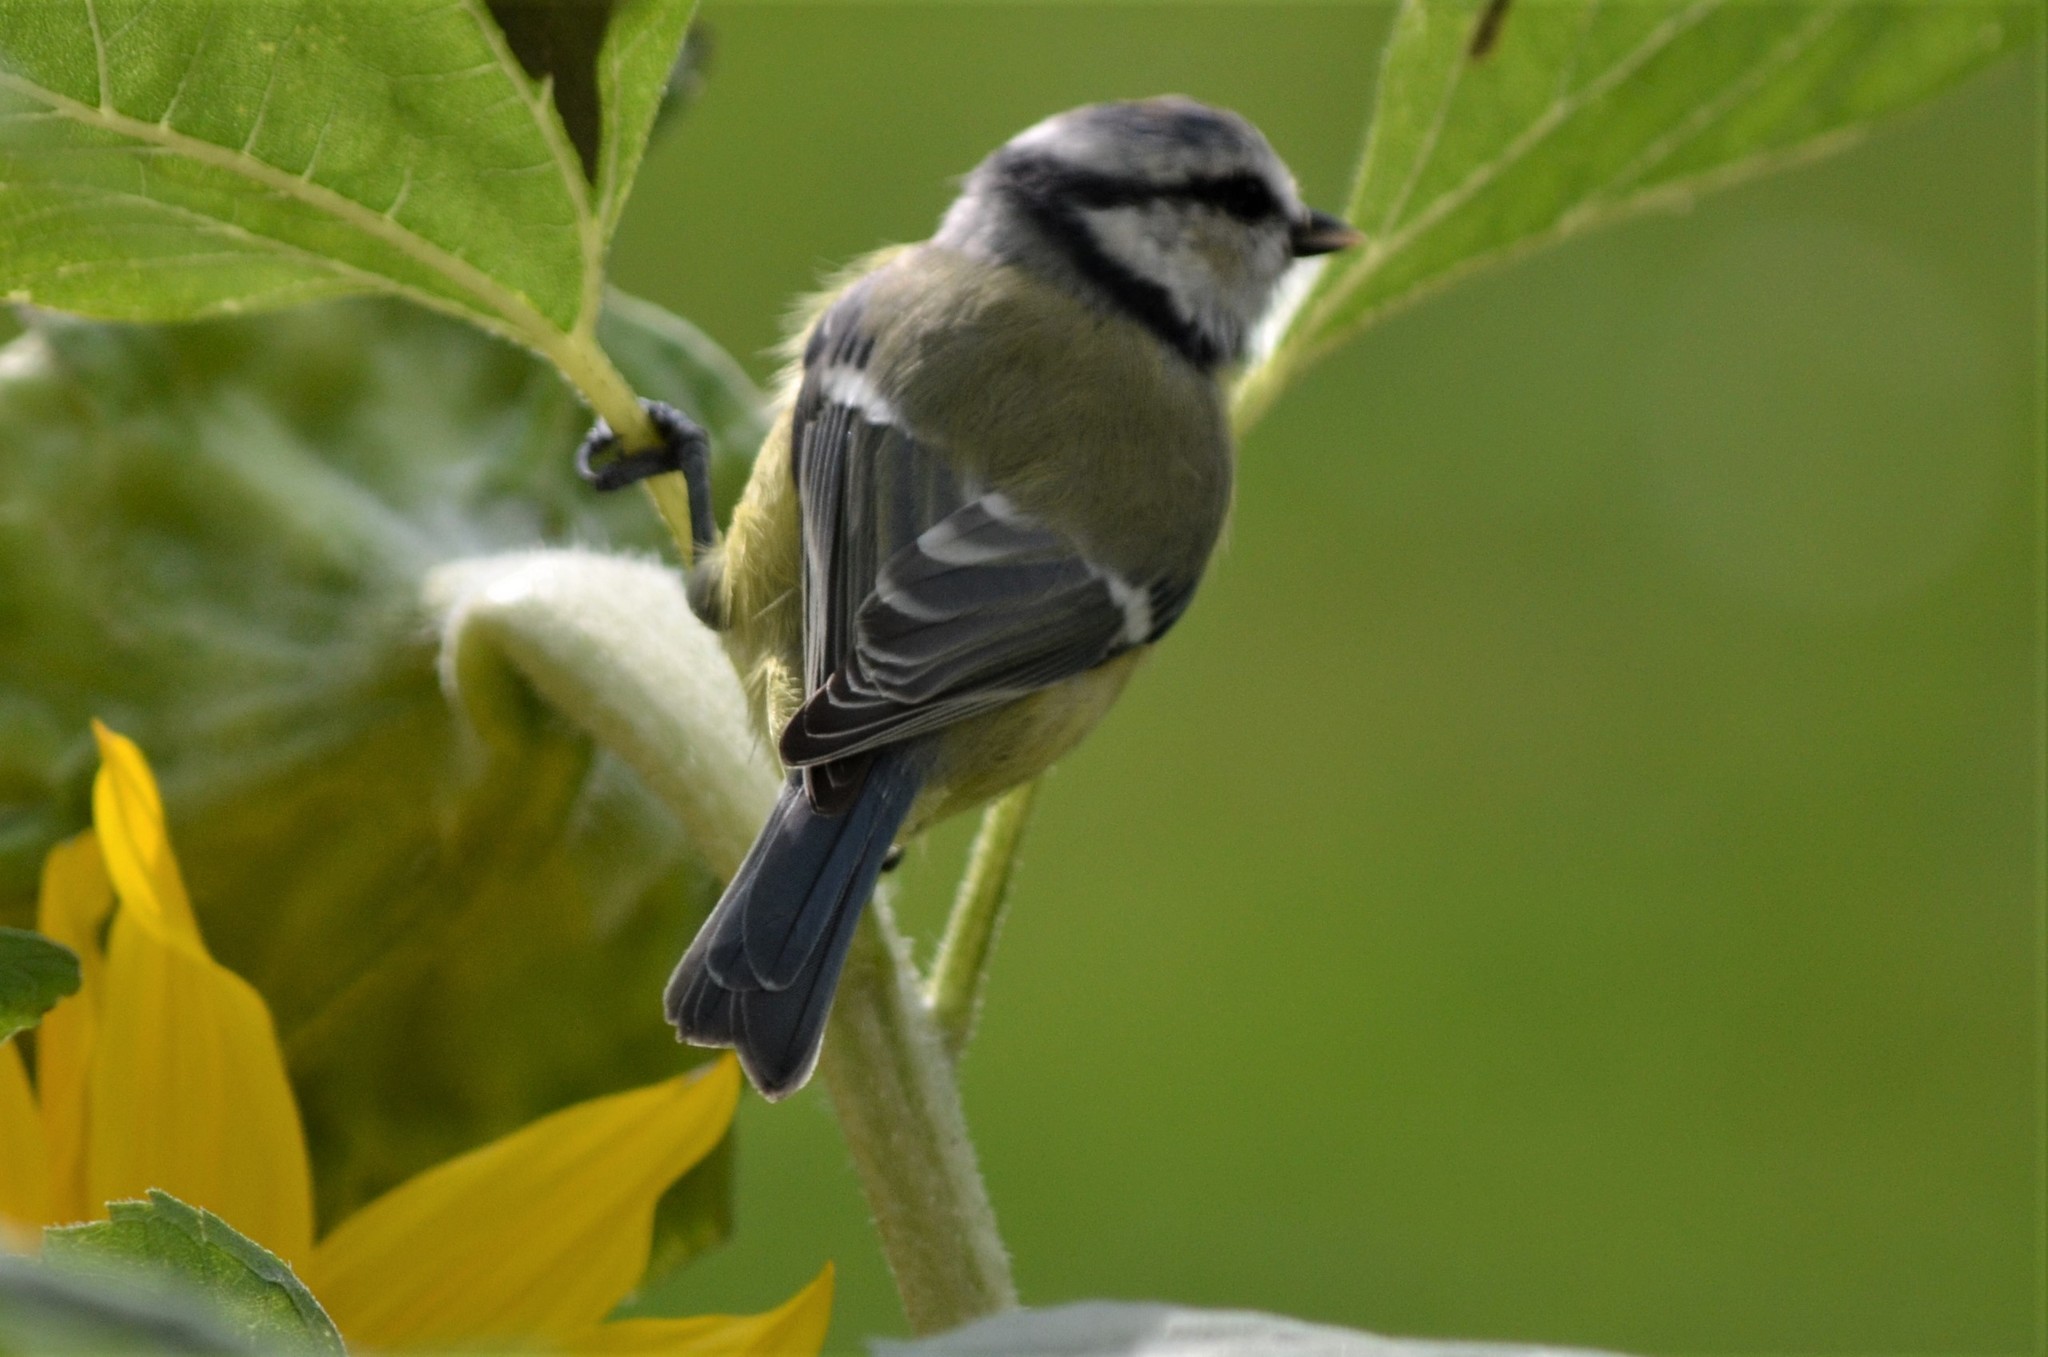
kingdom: Animalia
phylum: Chordata
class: Aves
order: Passeriformes
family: Paridae
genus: Cyanistes
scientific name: Cyanistes caeruleus
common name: Eurasian blue tit
